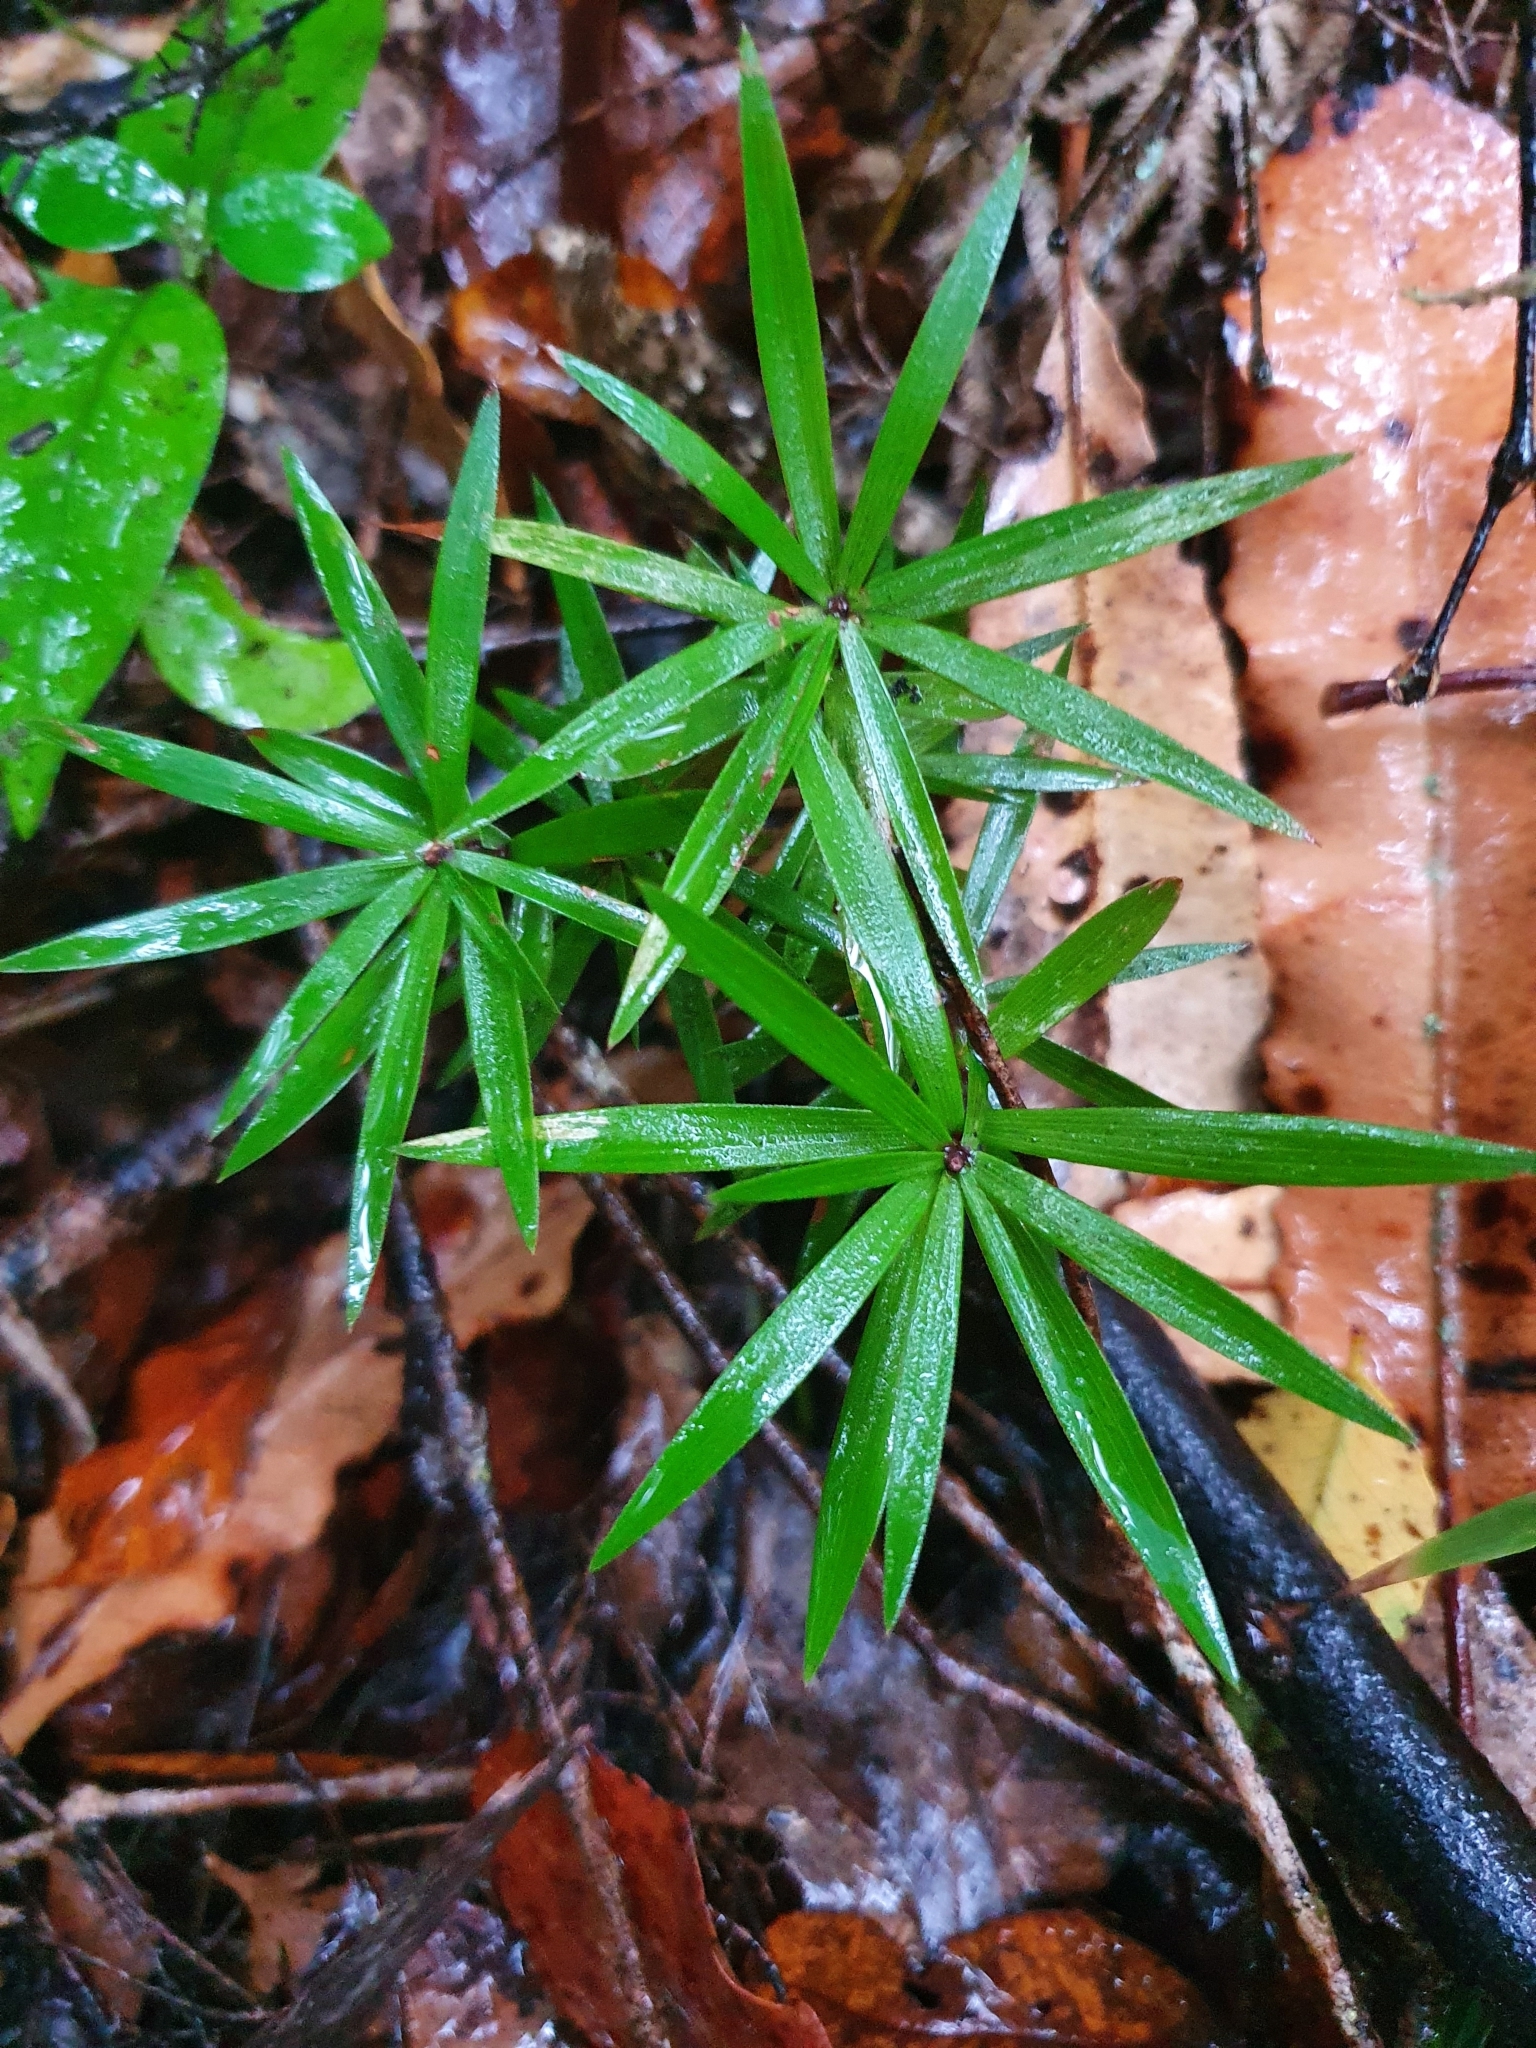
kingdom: Plantae
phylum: Tracheophyta
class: Magnoliopsida
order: Ericales
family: Ericaceae
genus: Leucopogon
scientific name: Leucopogon fasciculatus
